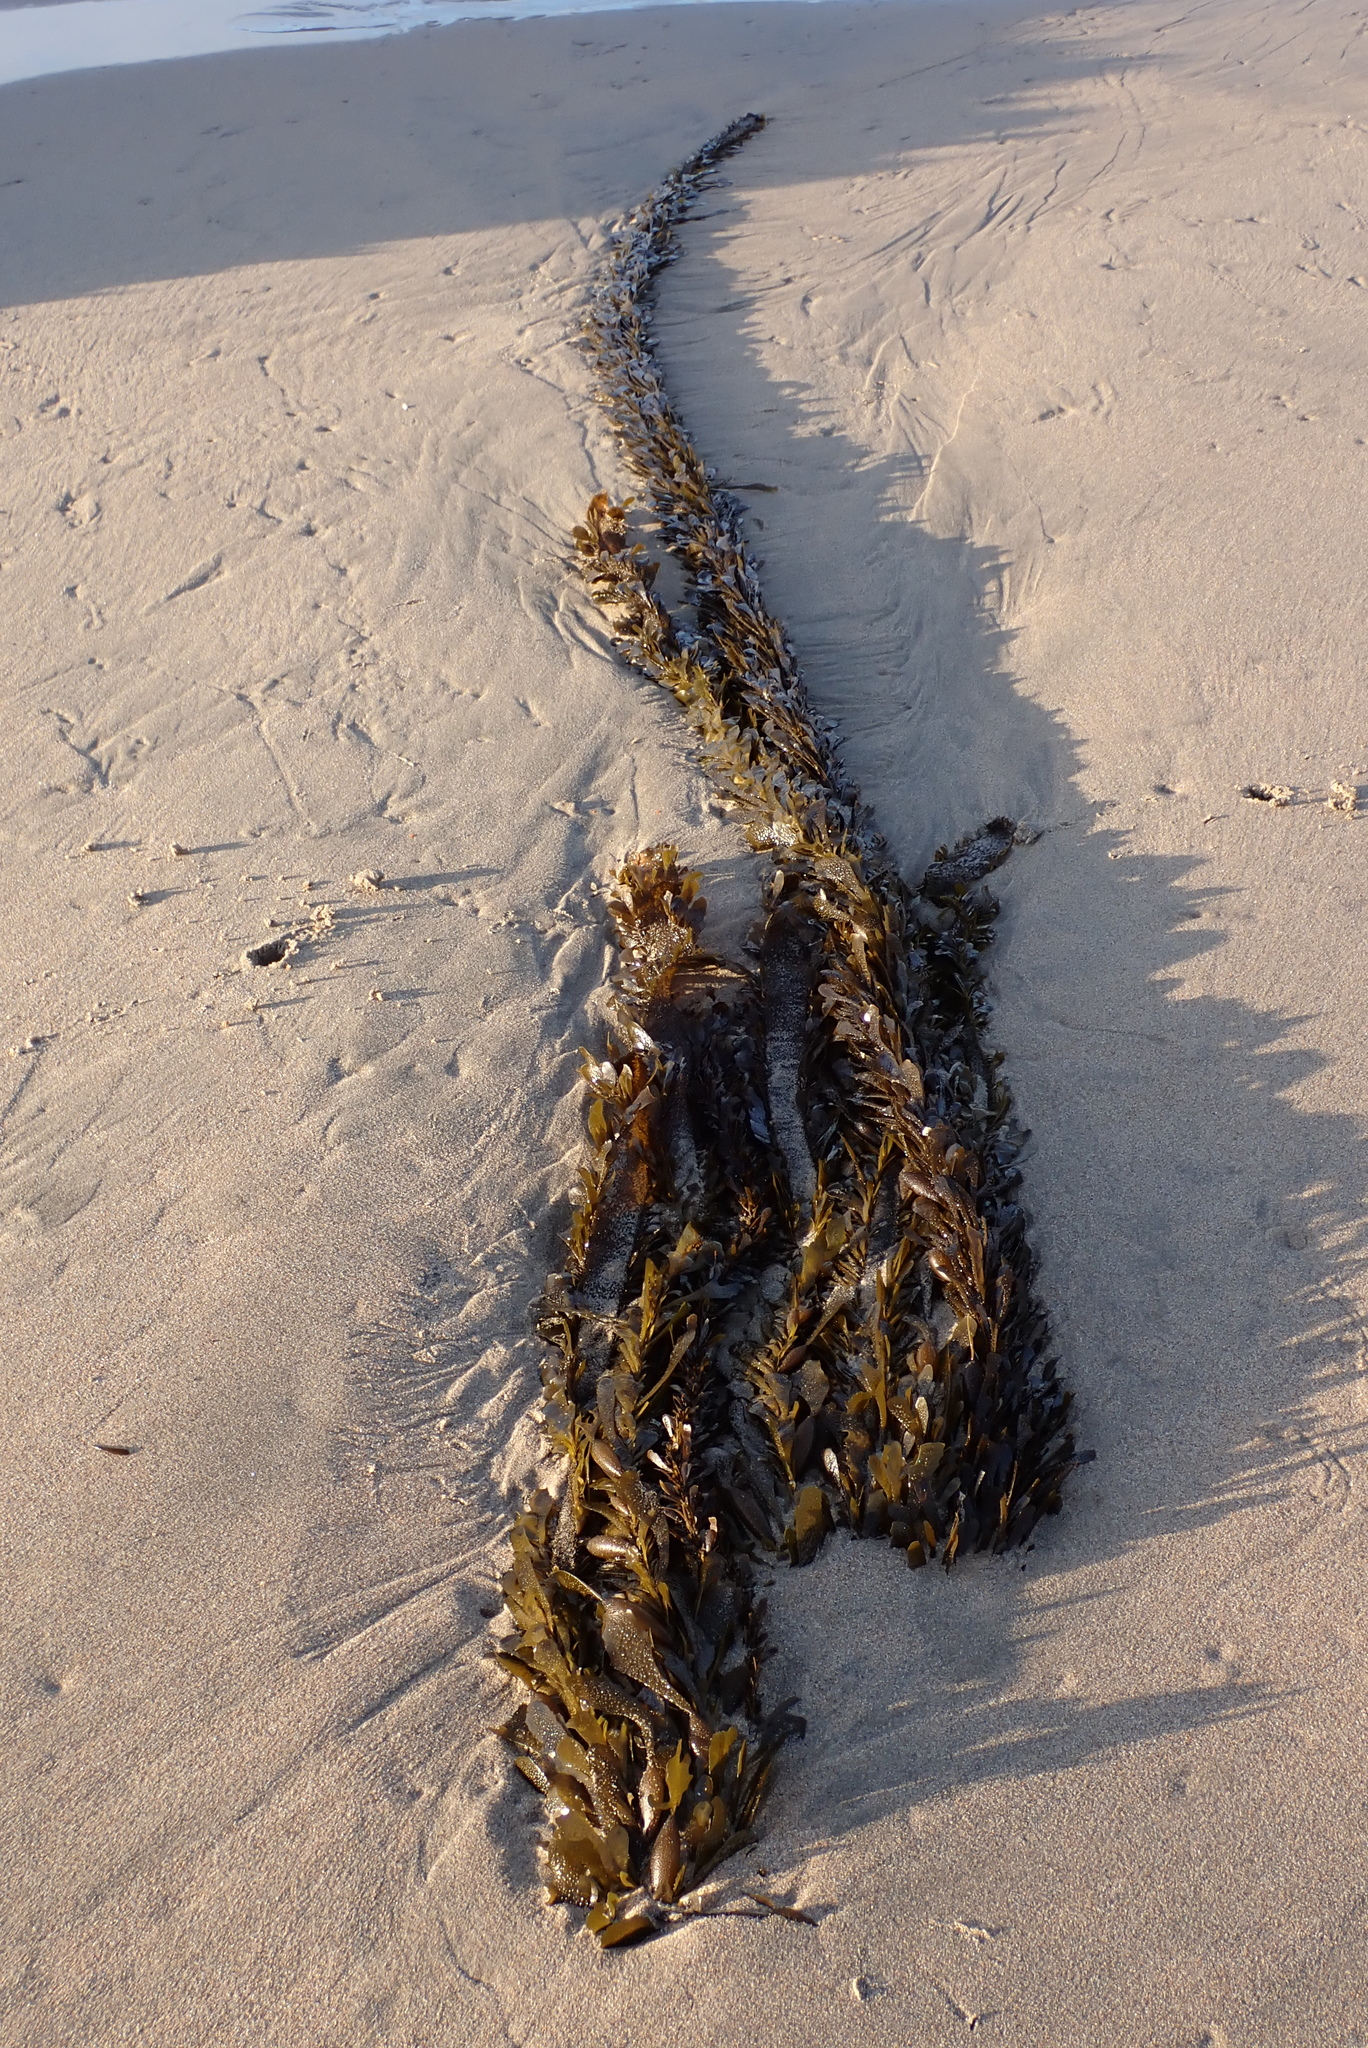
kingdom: Chromista
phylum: Ochrophyta
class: Phaeophyceae
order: Laminariales
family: Lessoniaceae
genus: Egregia
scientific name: Egregia menziesii
